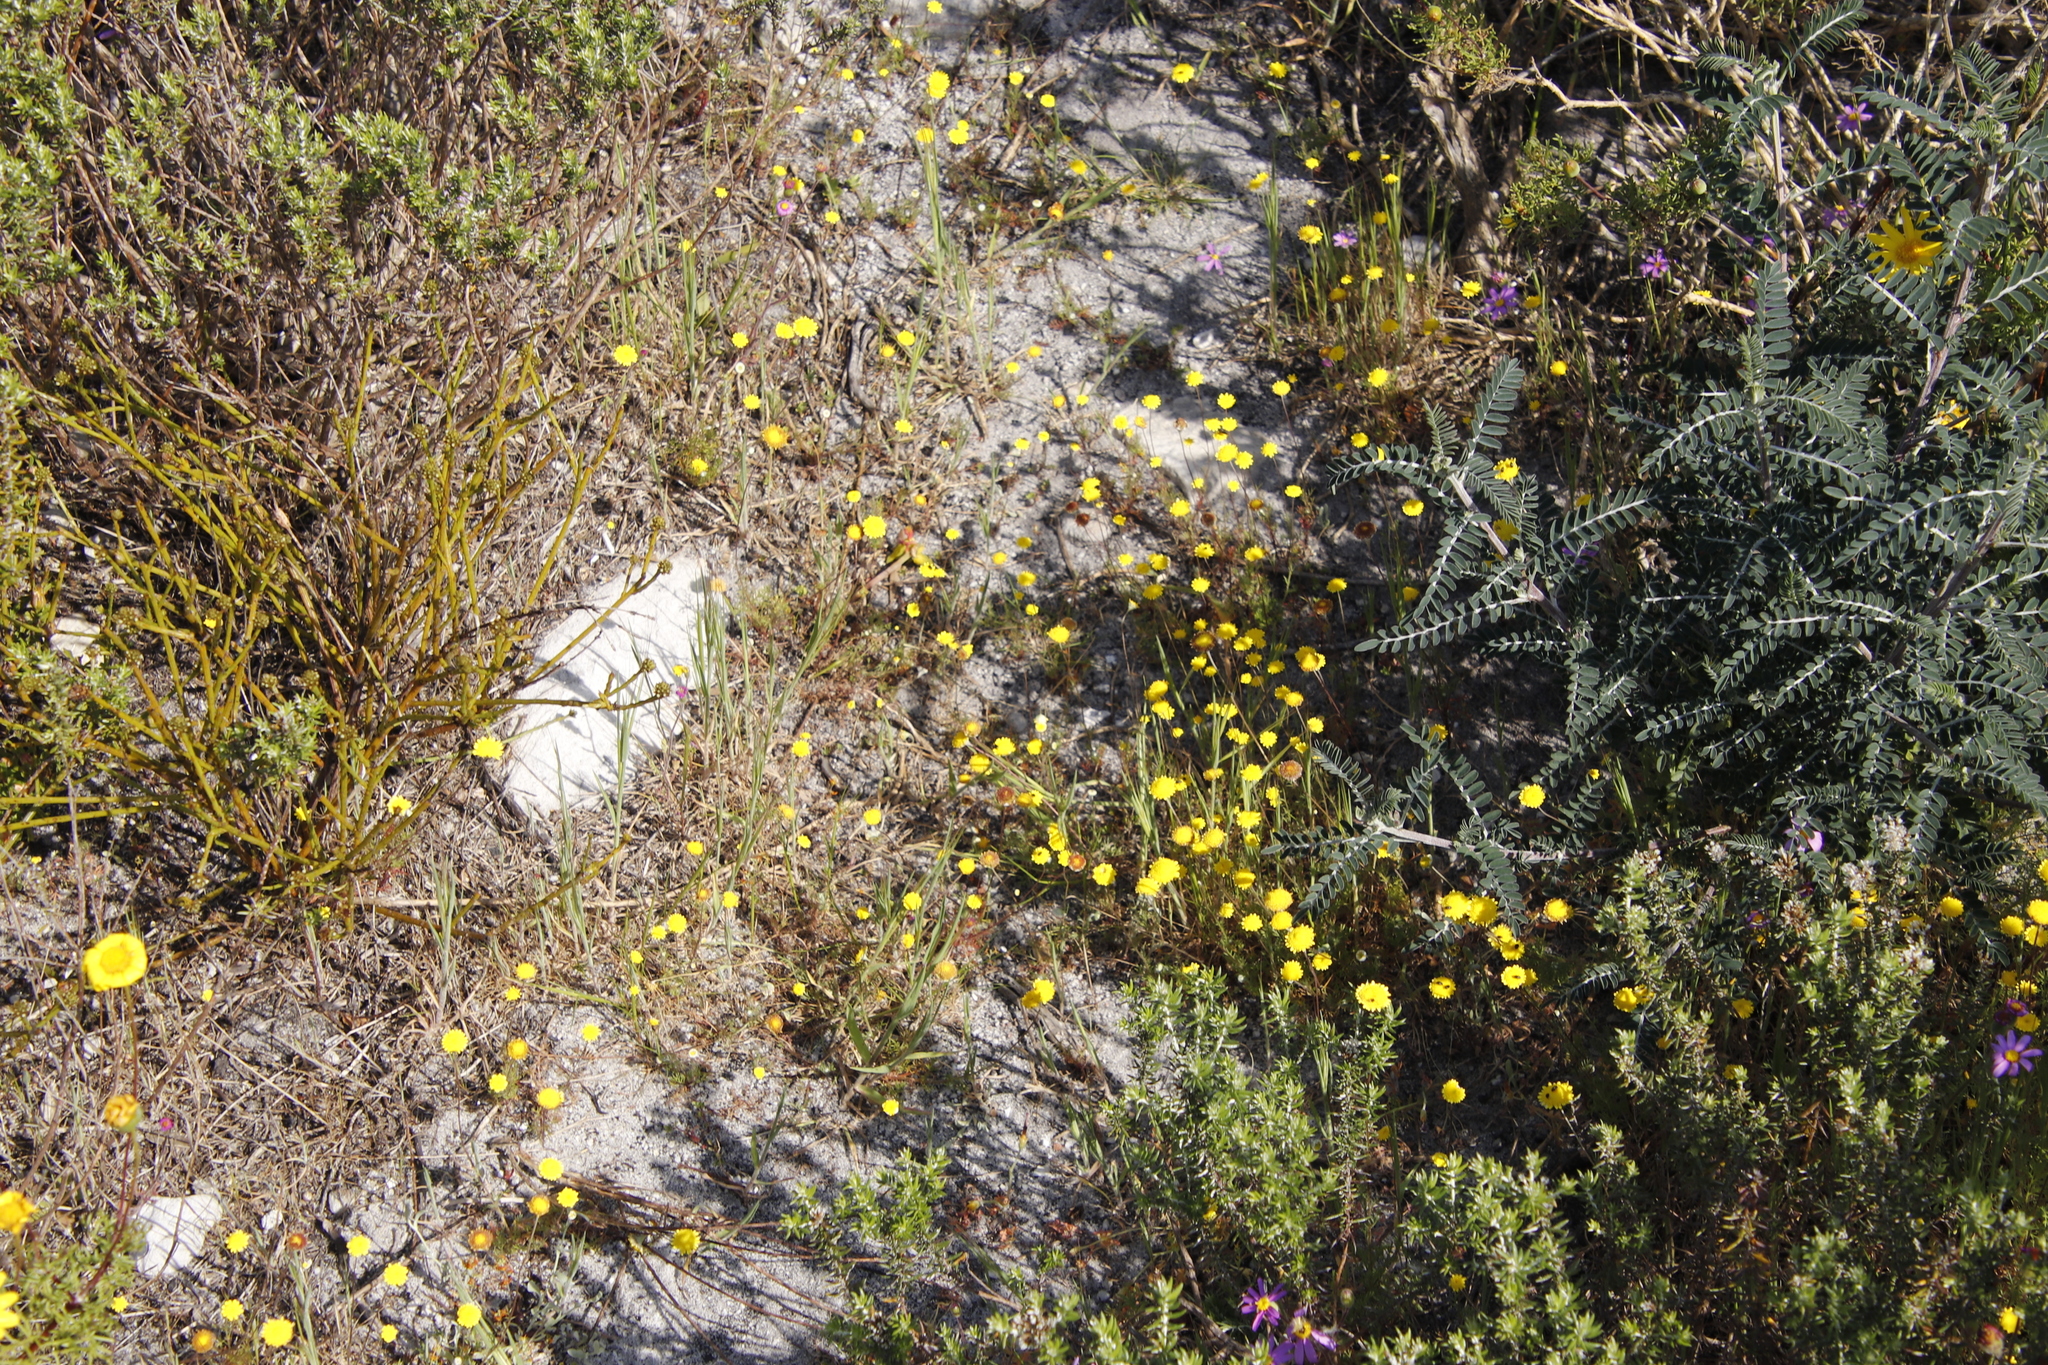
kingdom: Plantae
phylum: Tracheophyta
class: Magnoliopsida
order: Asterales
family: Asteraceae
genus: Cotula
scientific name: Cotula pruinosa
